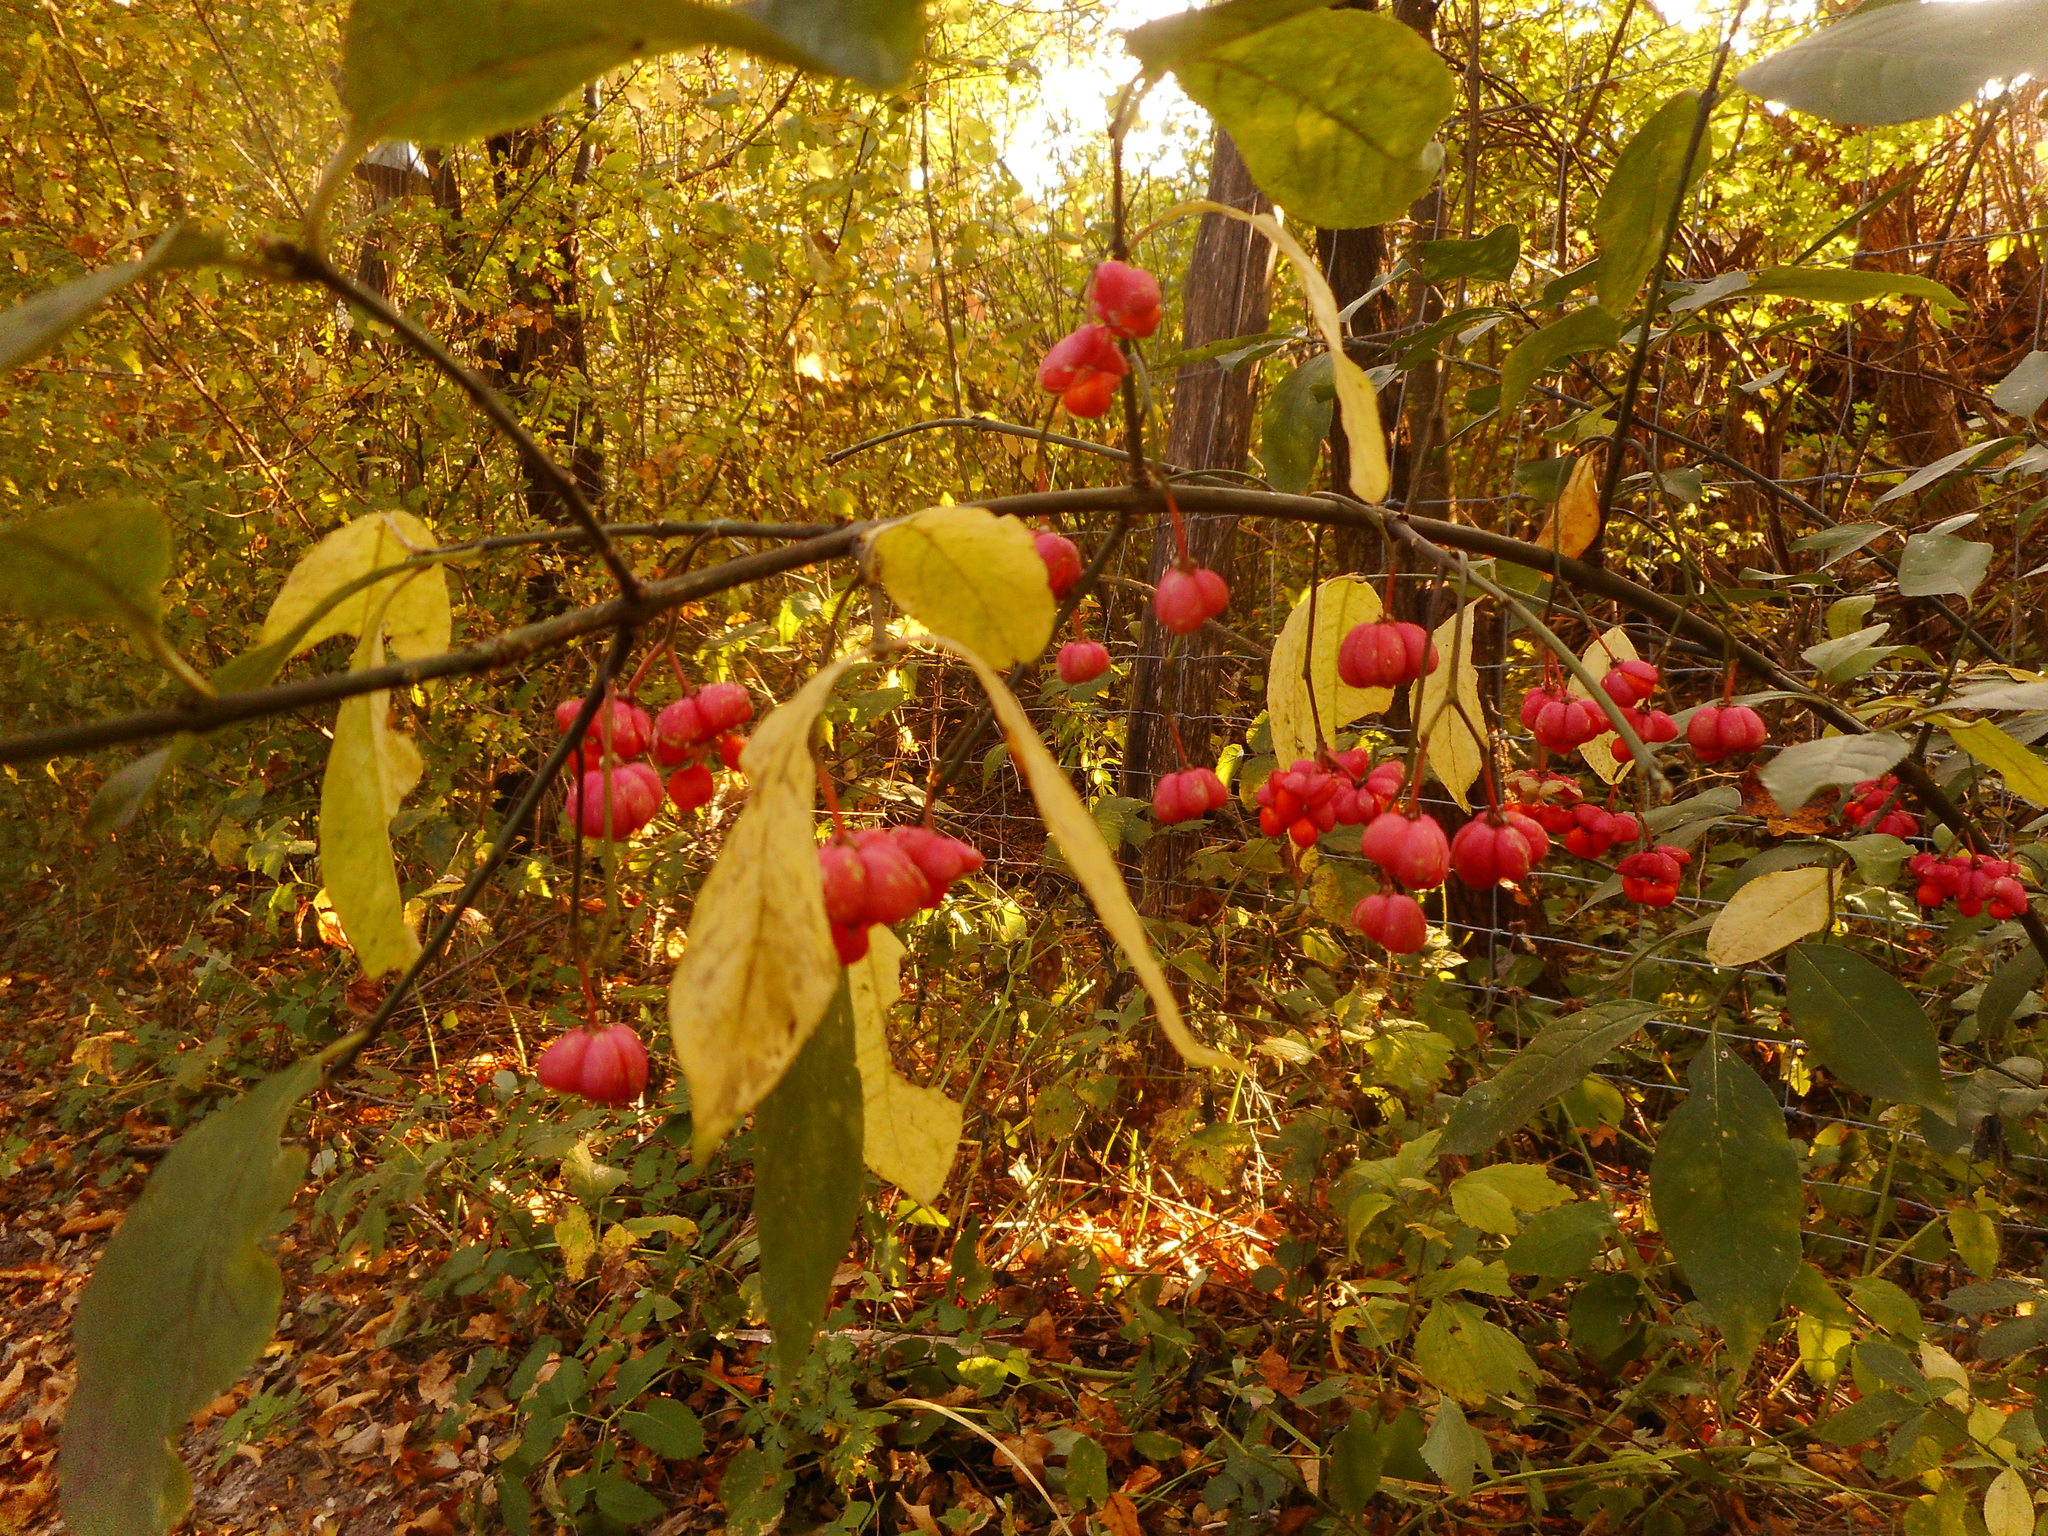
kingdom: Plantae
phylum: Tracheophyta
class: Magnoliopsida
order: Celastrales
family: Celastraceae
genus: Euonymus
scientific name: Euonymus europaeus
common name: Spindle
